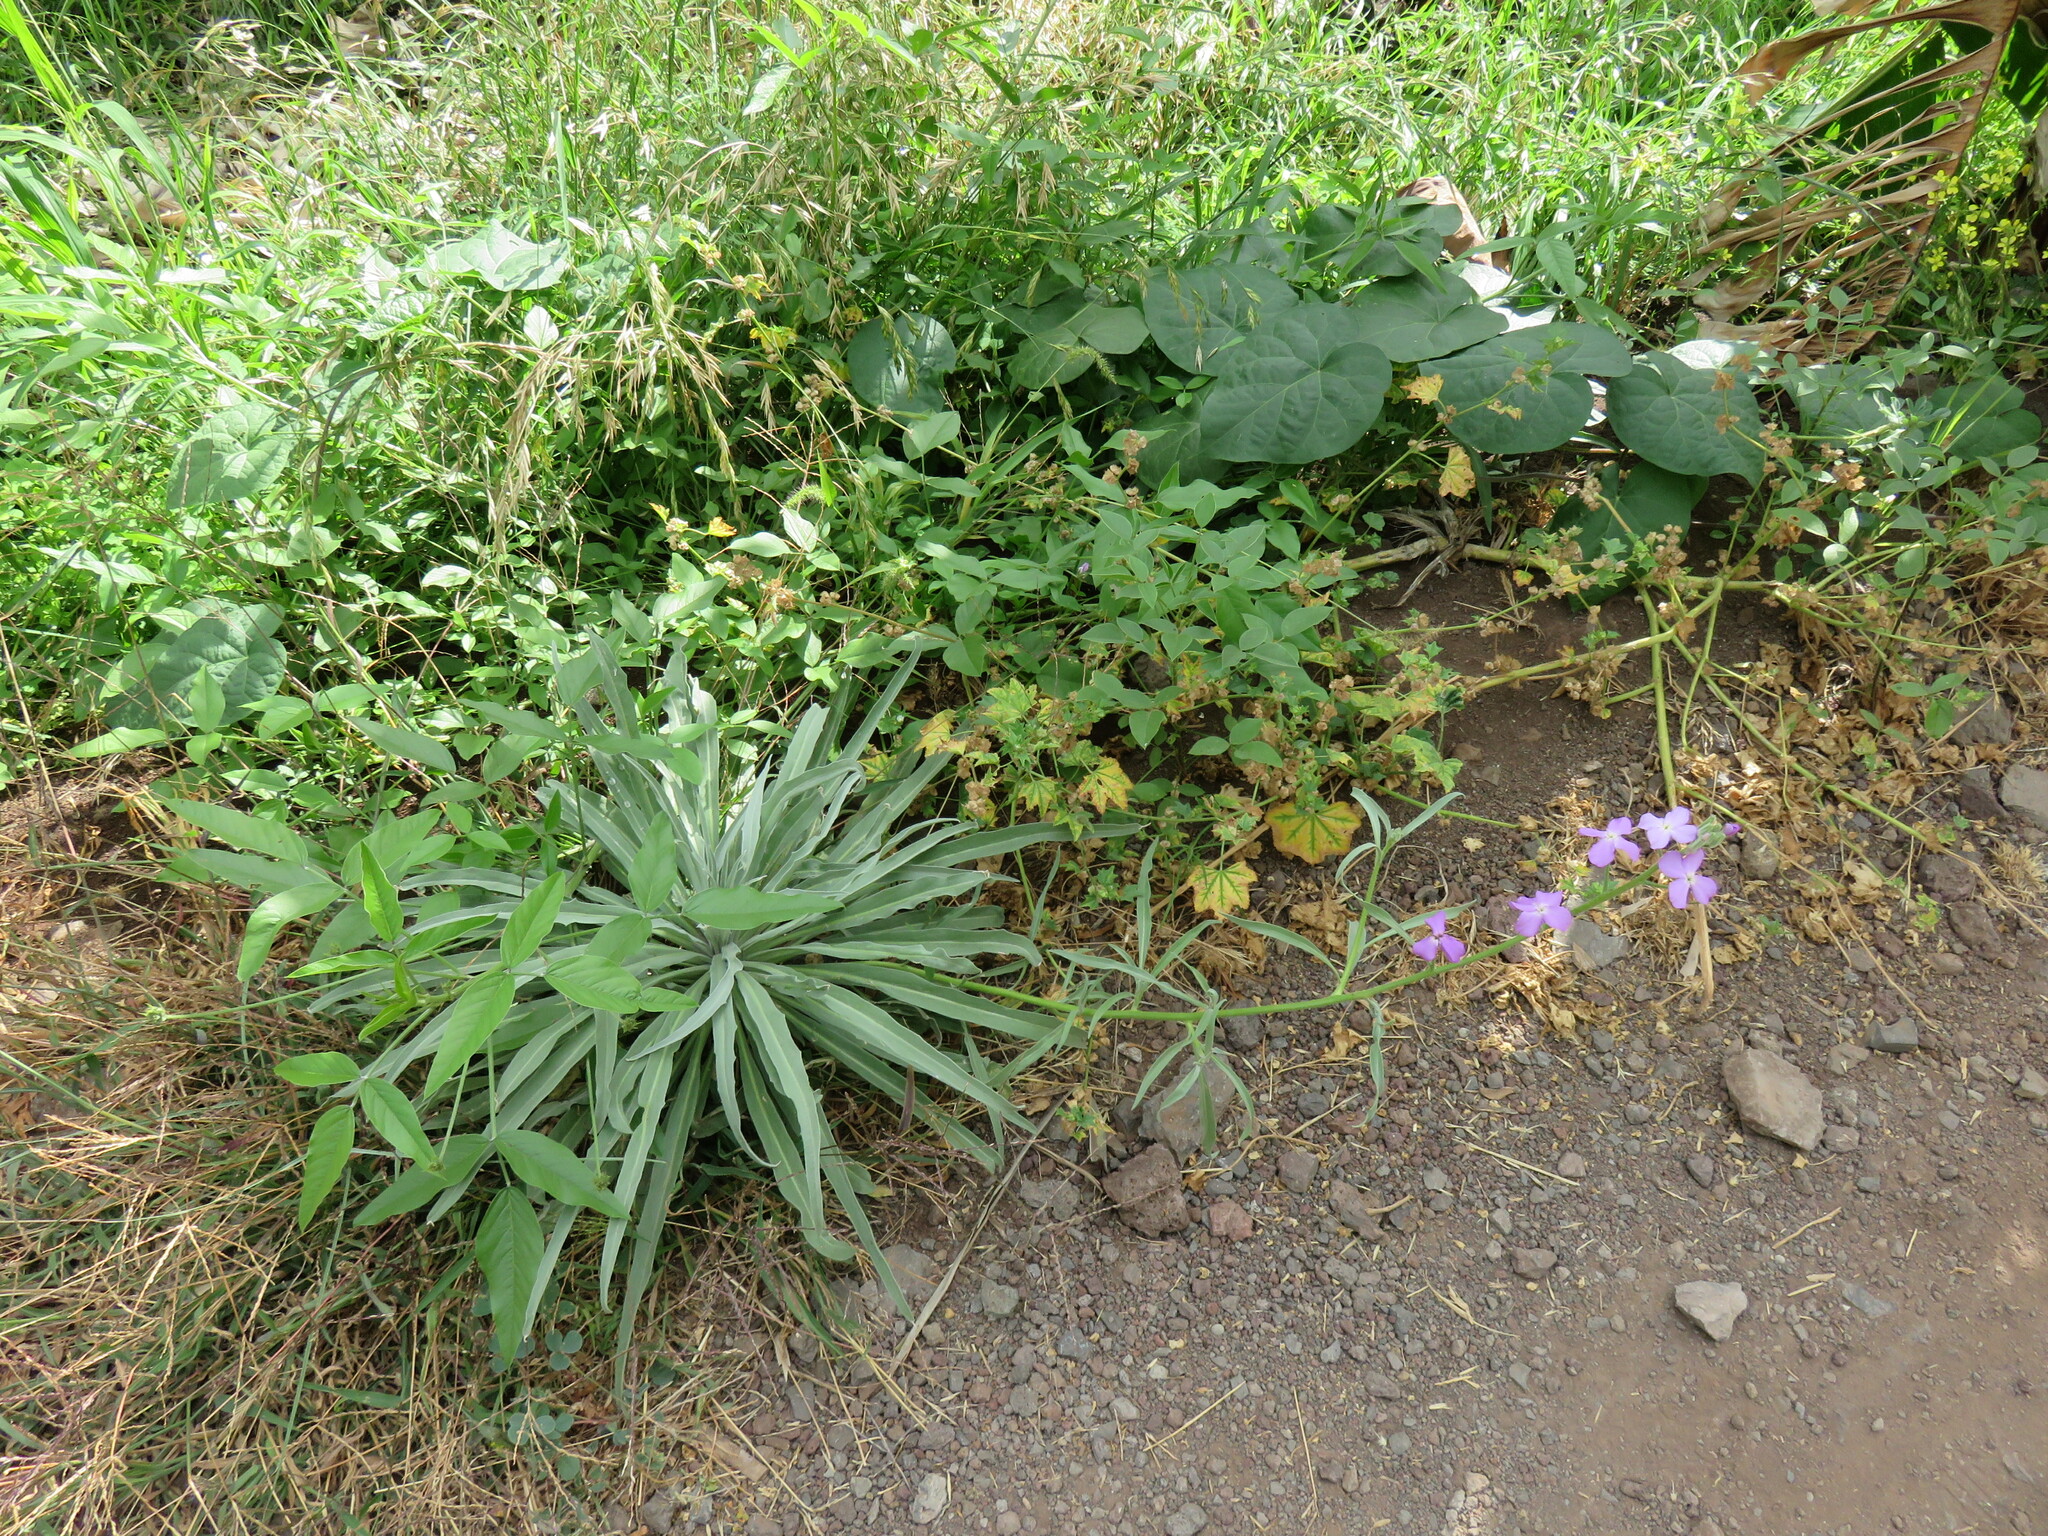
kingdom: Plantae
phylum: Tracheophyta
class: Magnoliopsida
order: Brassicales
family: Brassicaceae
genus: Matthiola
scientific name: Matthiola maderensis
